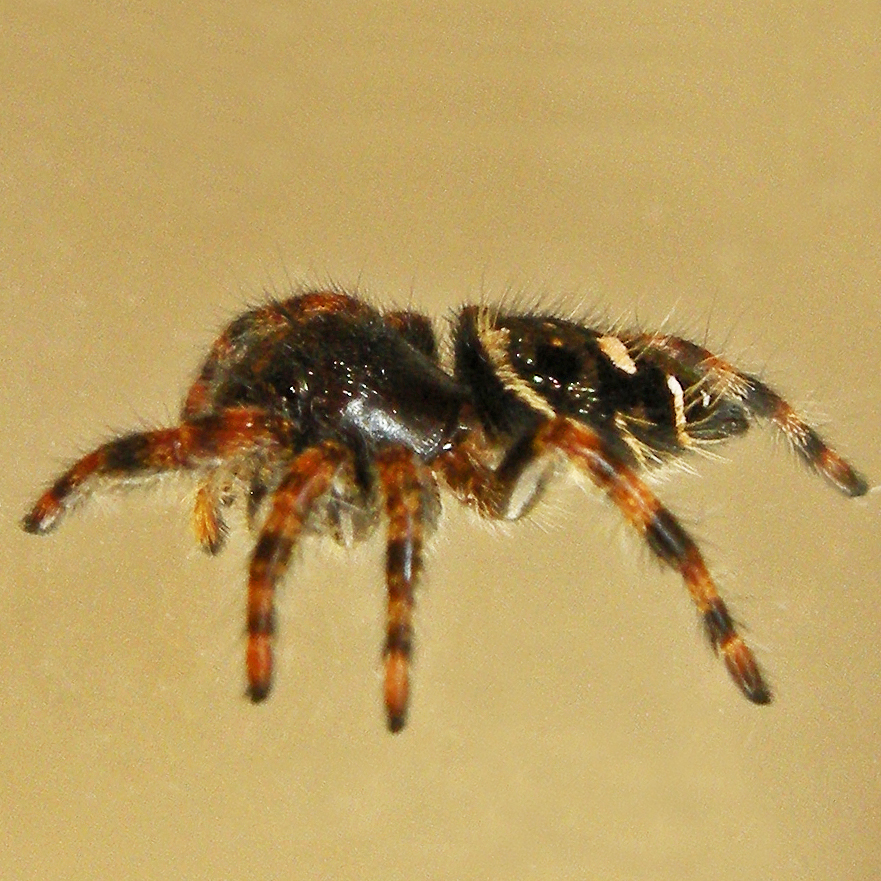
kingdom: Animalia
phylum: Arthropoda
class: Arachnida
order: Araneae
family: Salticidae
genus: Phidippus
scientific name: Phidippus audax
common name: Bold jumper
